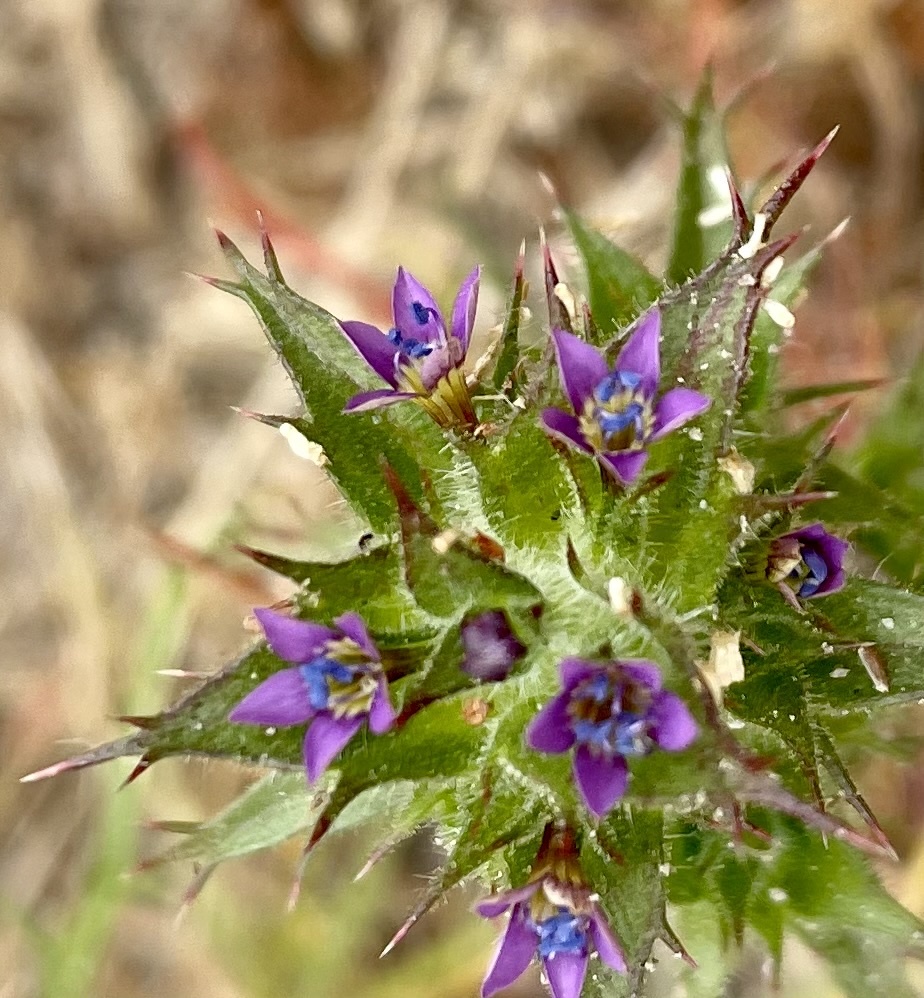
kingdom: Plantae
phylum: Tracheophyta
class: Magnoliopsida
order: Ericales
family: Polemoniaceae
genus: Navarretia
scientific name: Navarretia atractyloides
